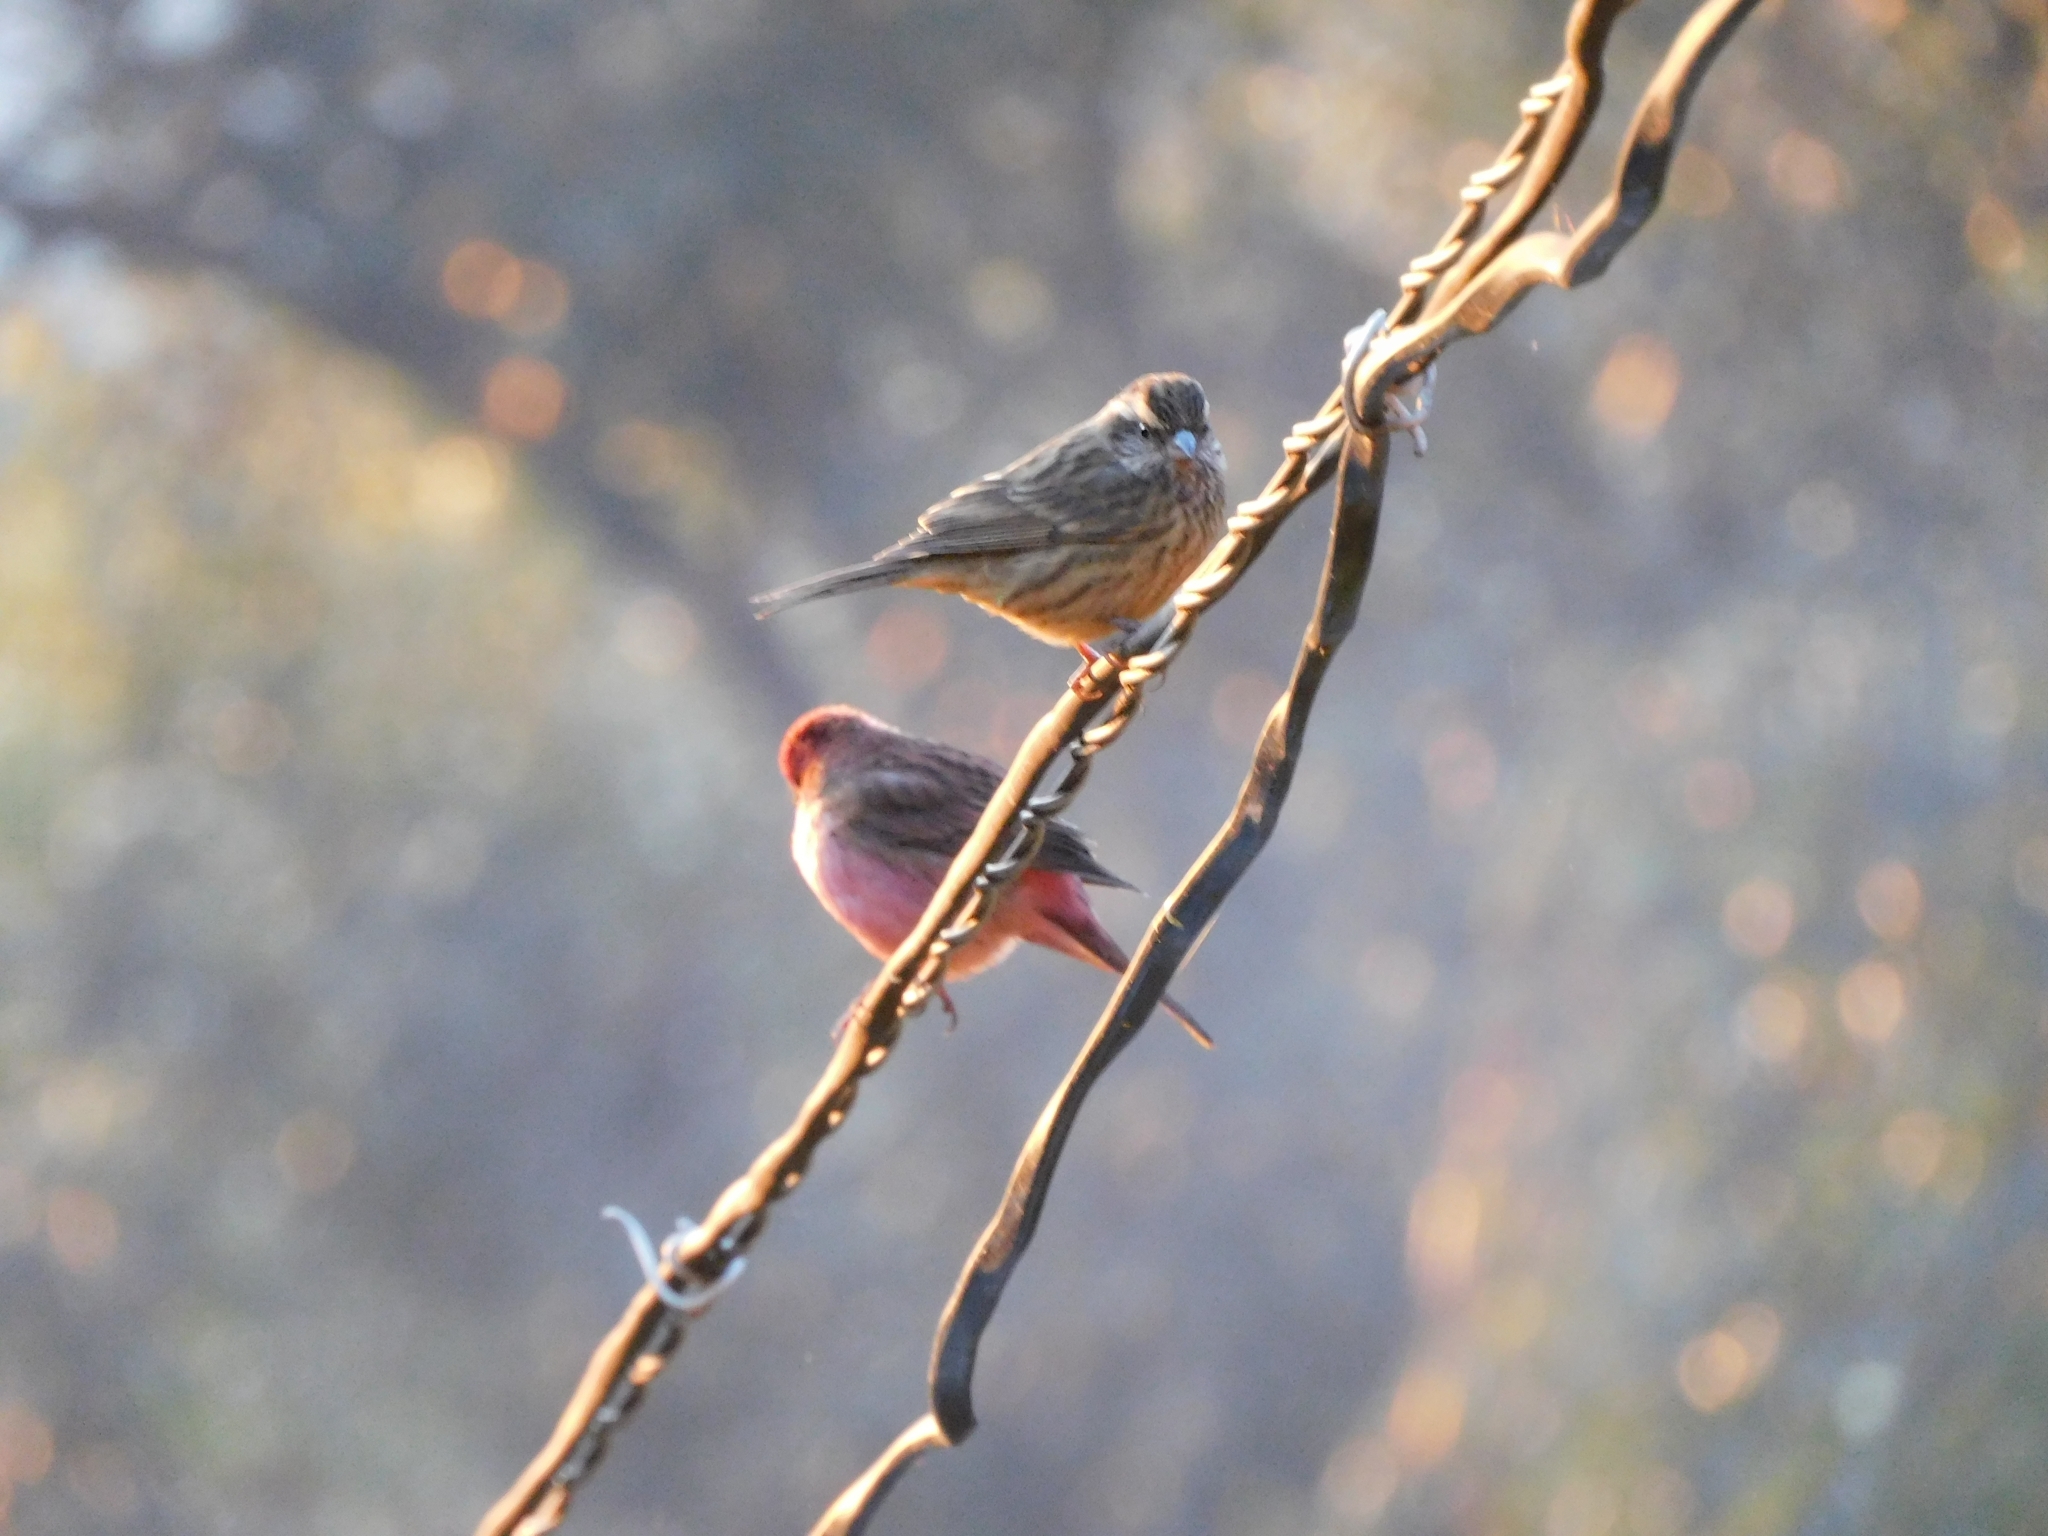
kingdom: Animalia
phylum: Chordata
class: Aves
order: Passeriformes
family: Fringillidae
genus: Carpodacus
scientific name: Carpodacus rodochroa
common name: Pink-browed rosefinch
